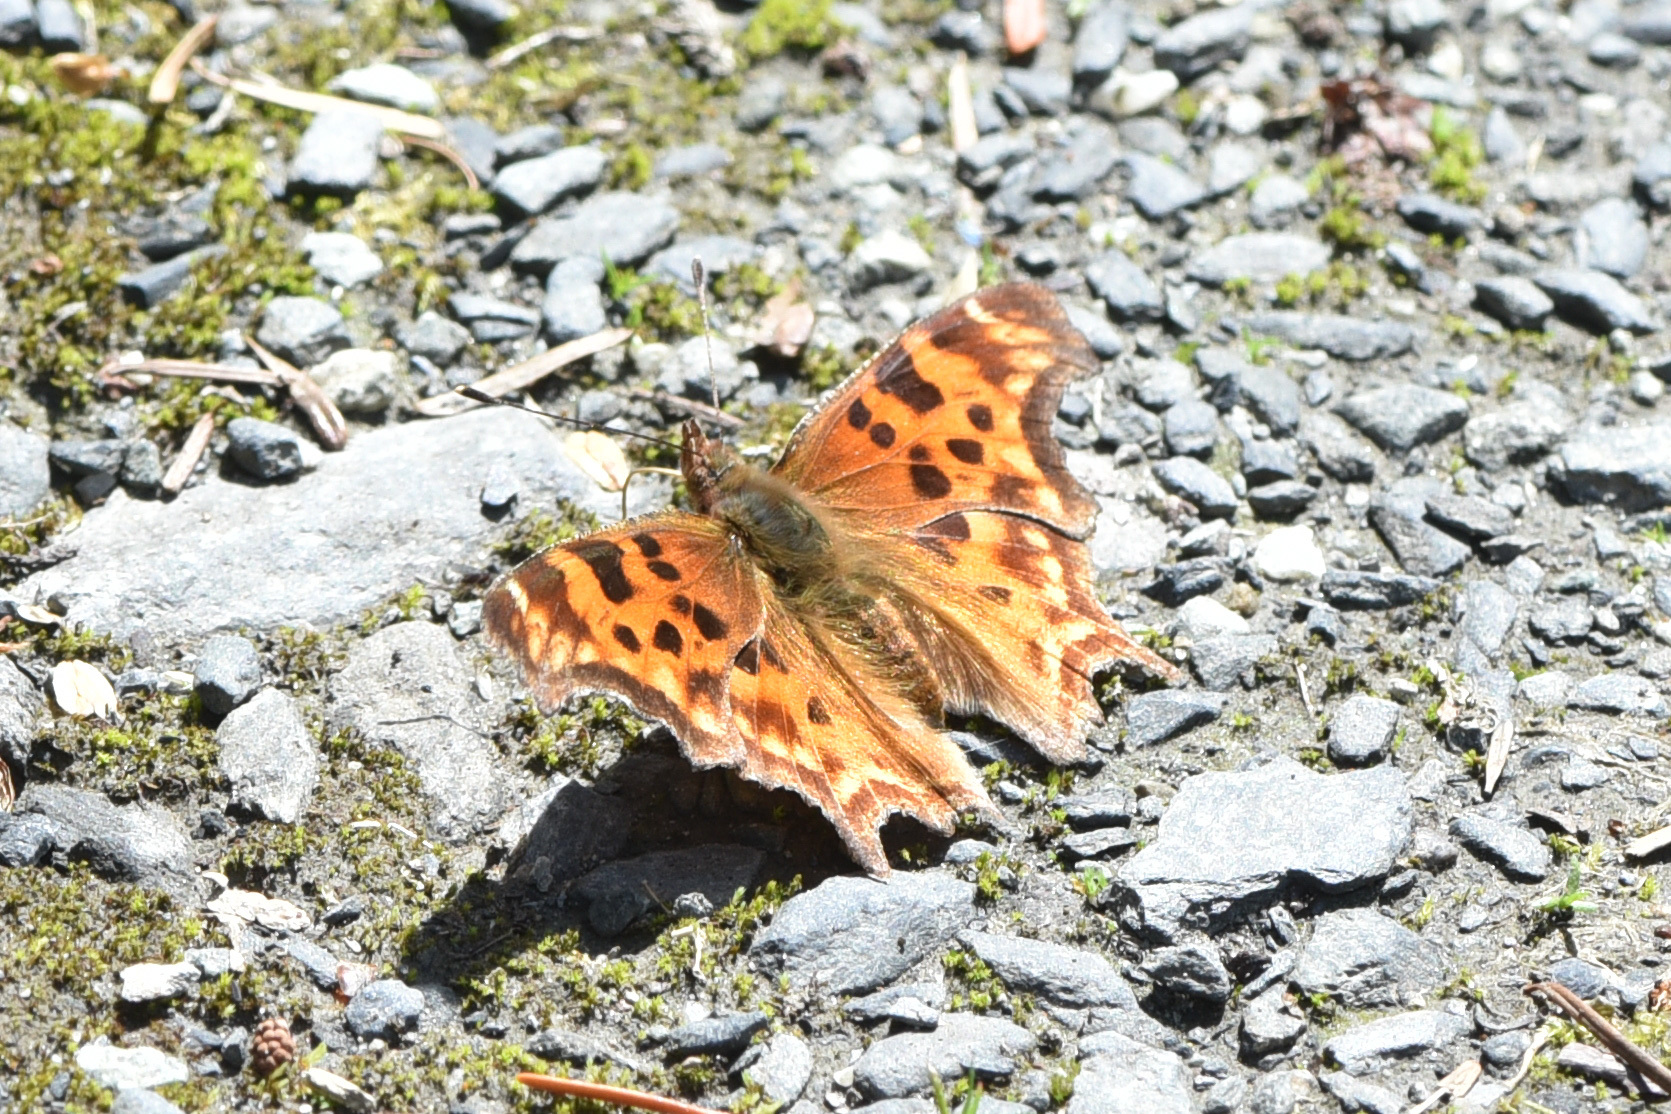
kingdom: Animalia
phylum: Arthropoda
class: Insecta
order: Lepidoptera
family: Nymphalidae
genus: Polygonia
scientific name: Polygonia satyrus
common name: Satyr angle wing
